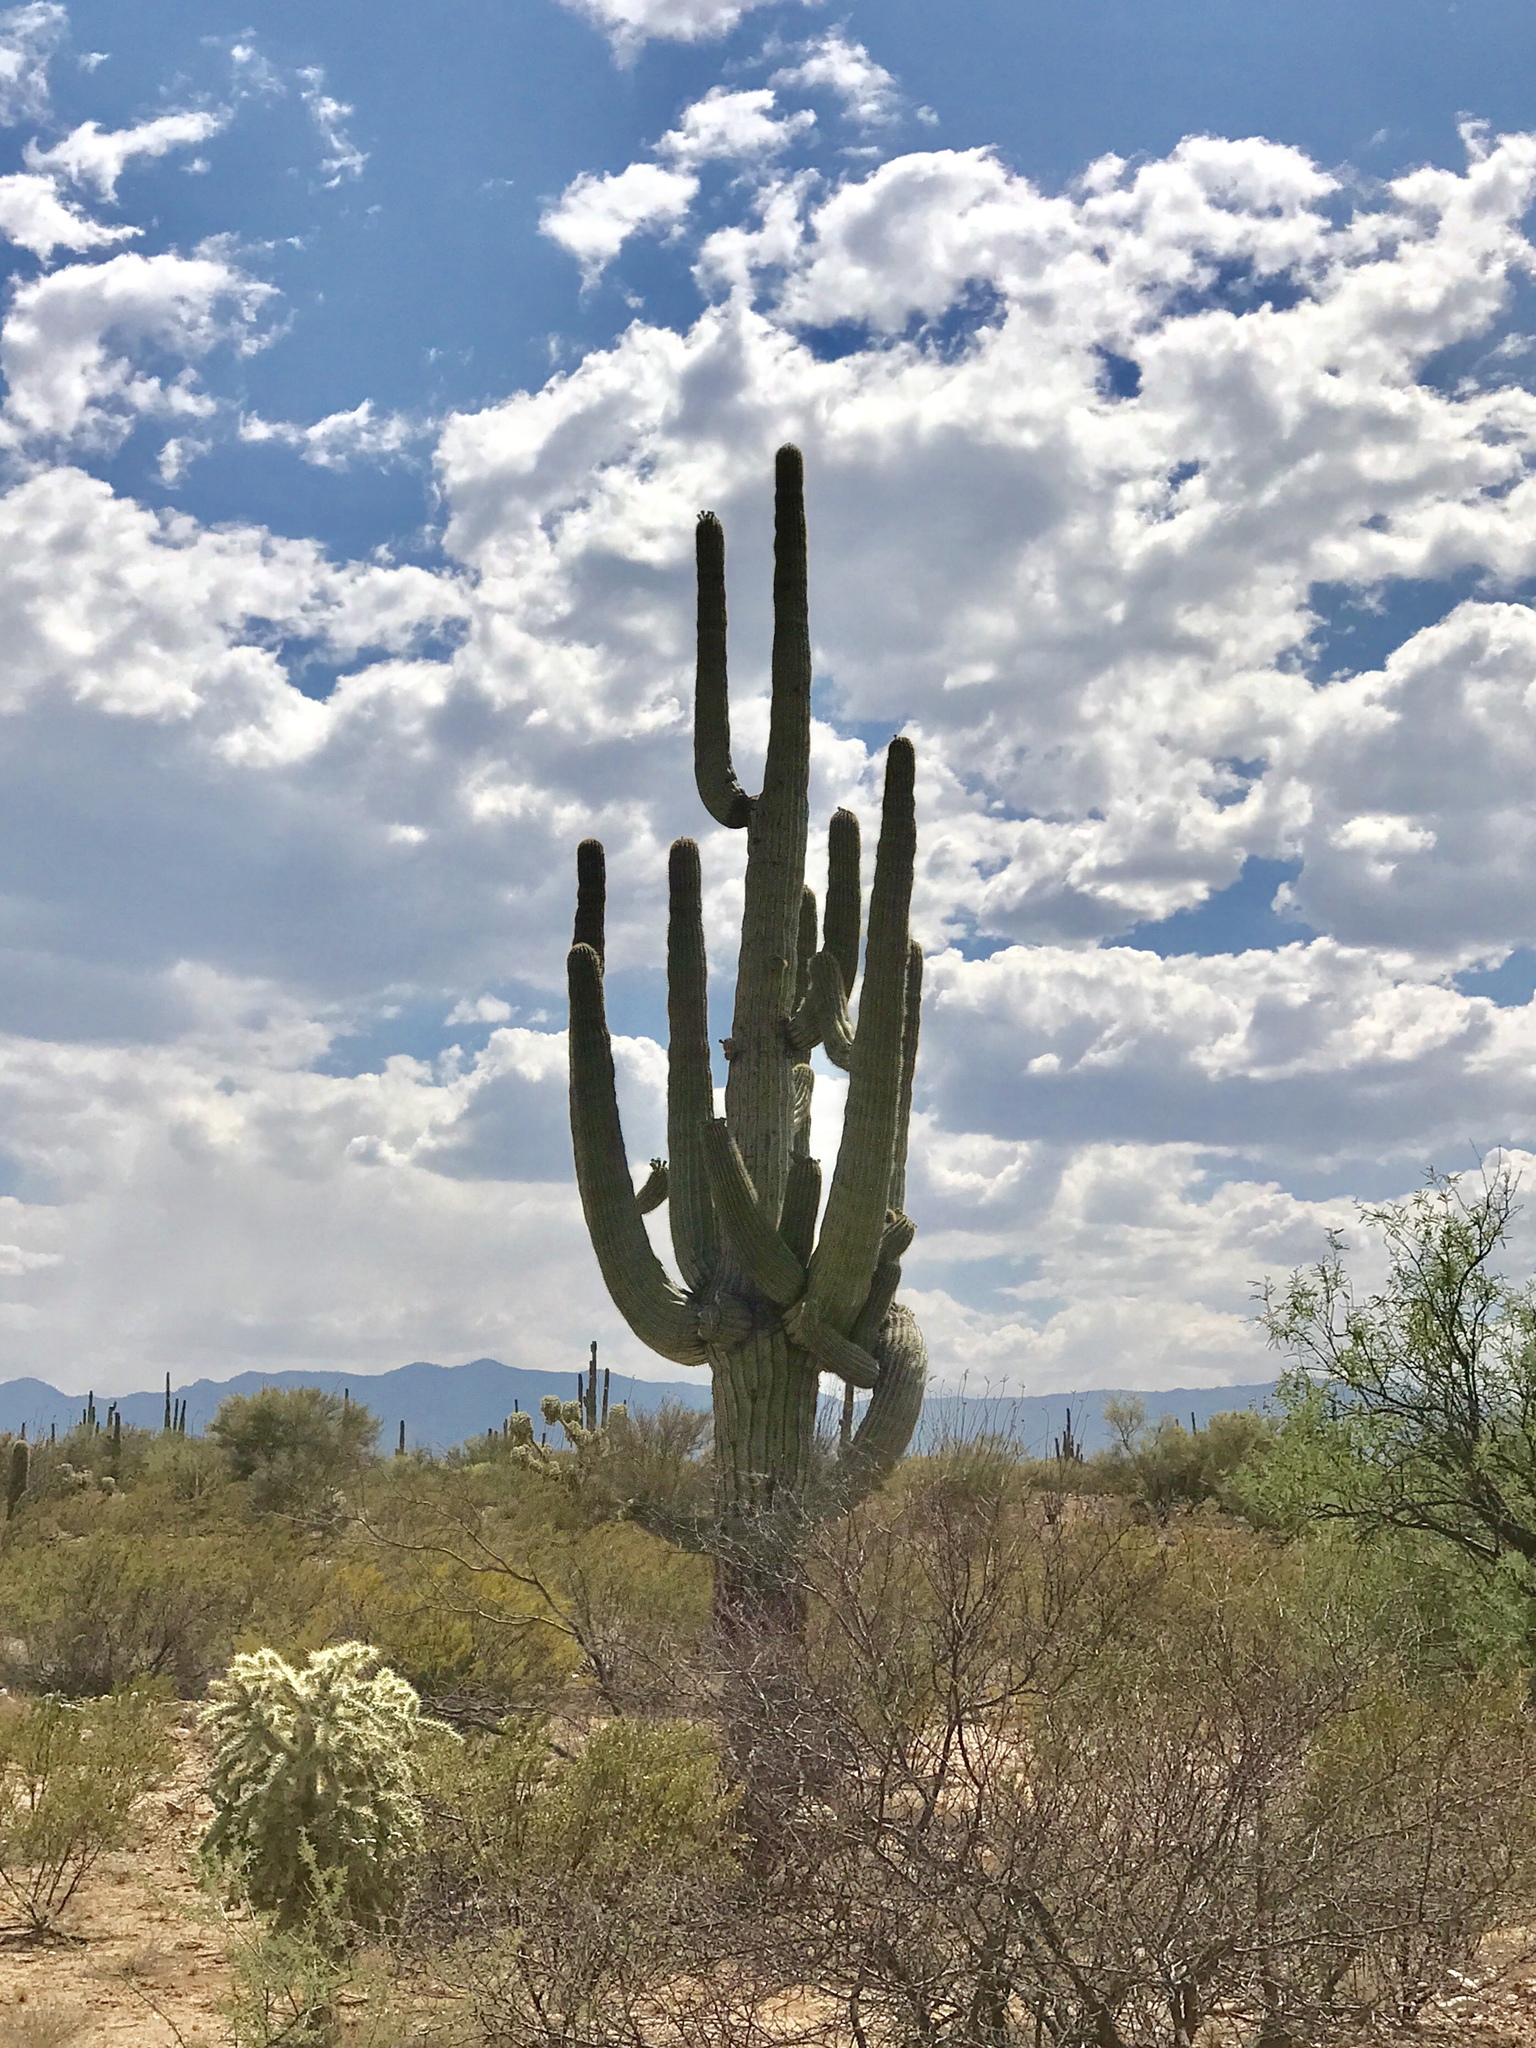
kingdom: Plantae
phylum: Tracheophyta
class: Magnoliopsida
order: Caryophyllales
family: Cactaceae
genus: Carnegiea
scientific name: Carnegiea gigantea
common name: Saguaro
